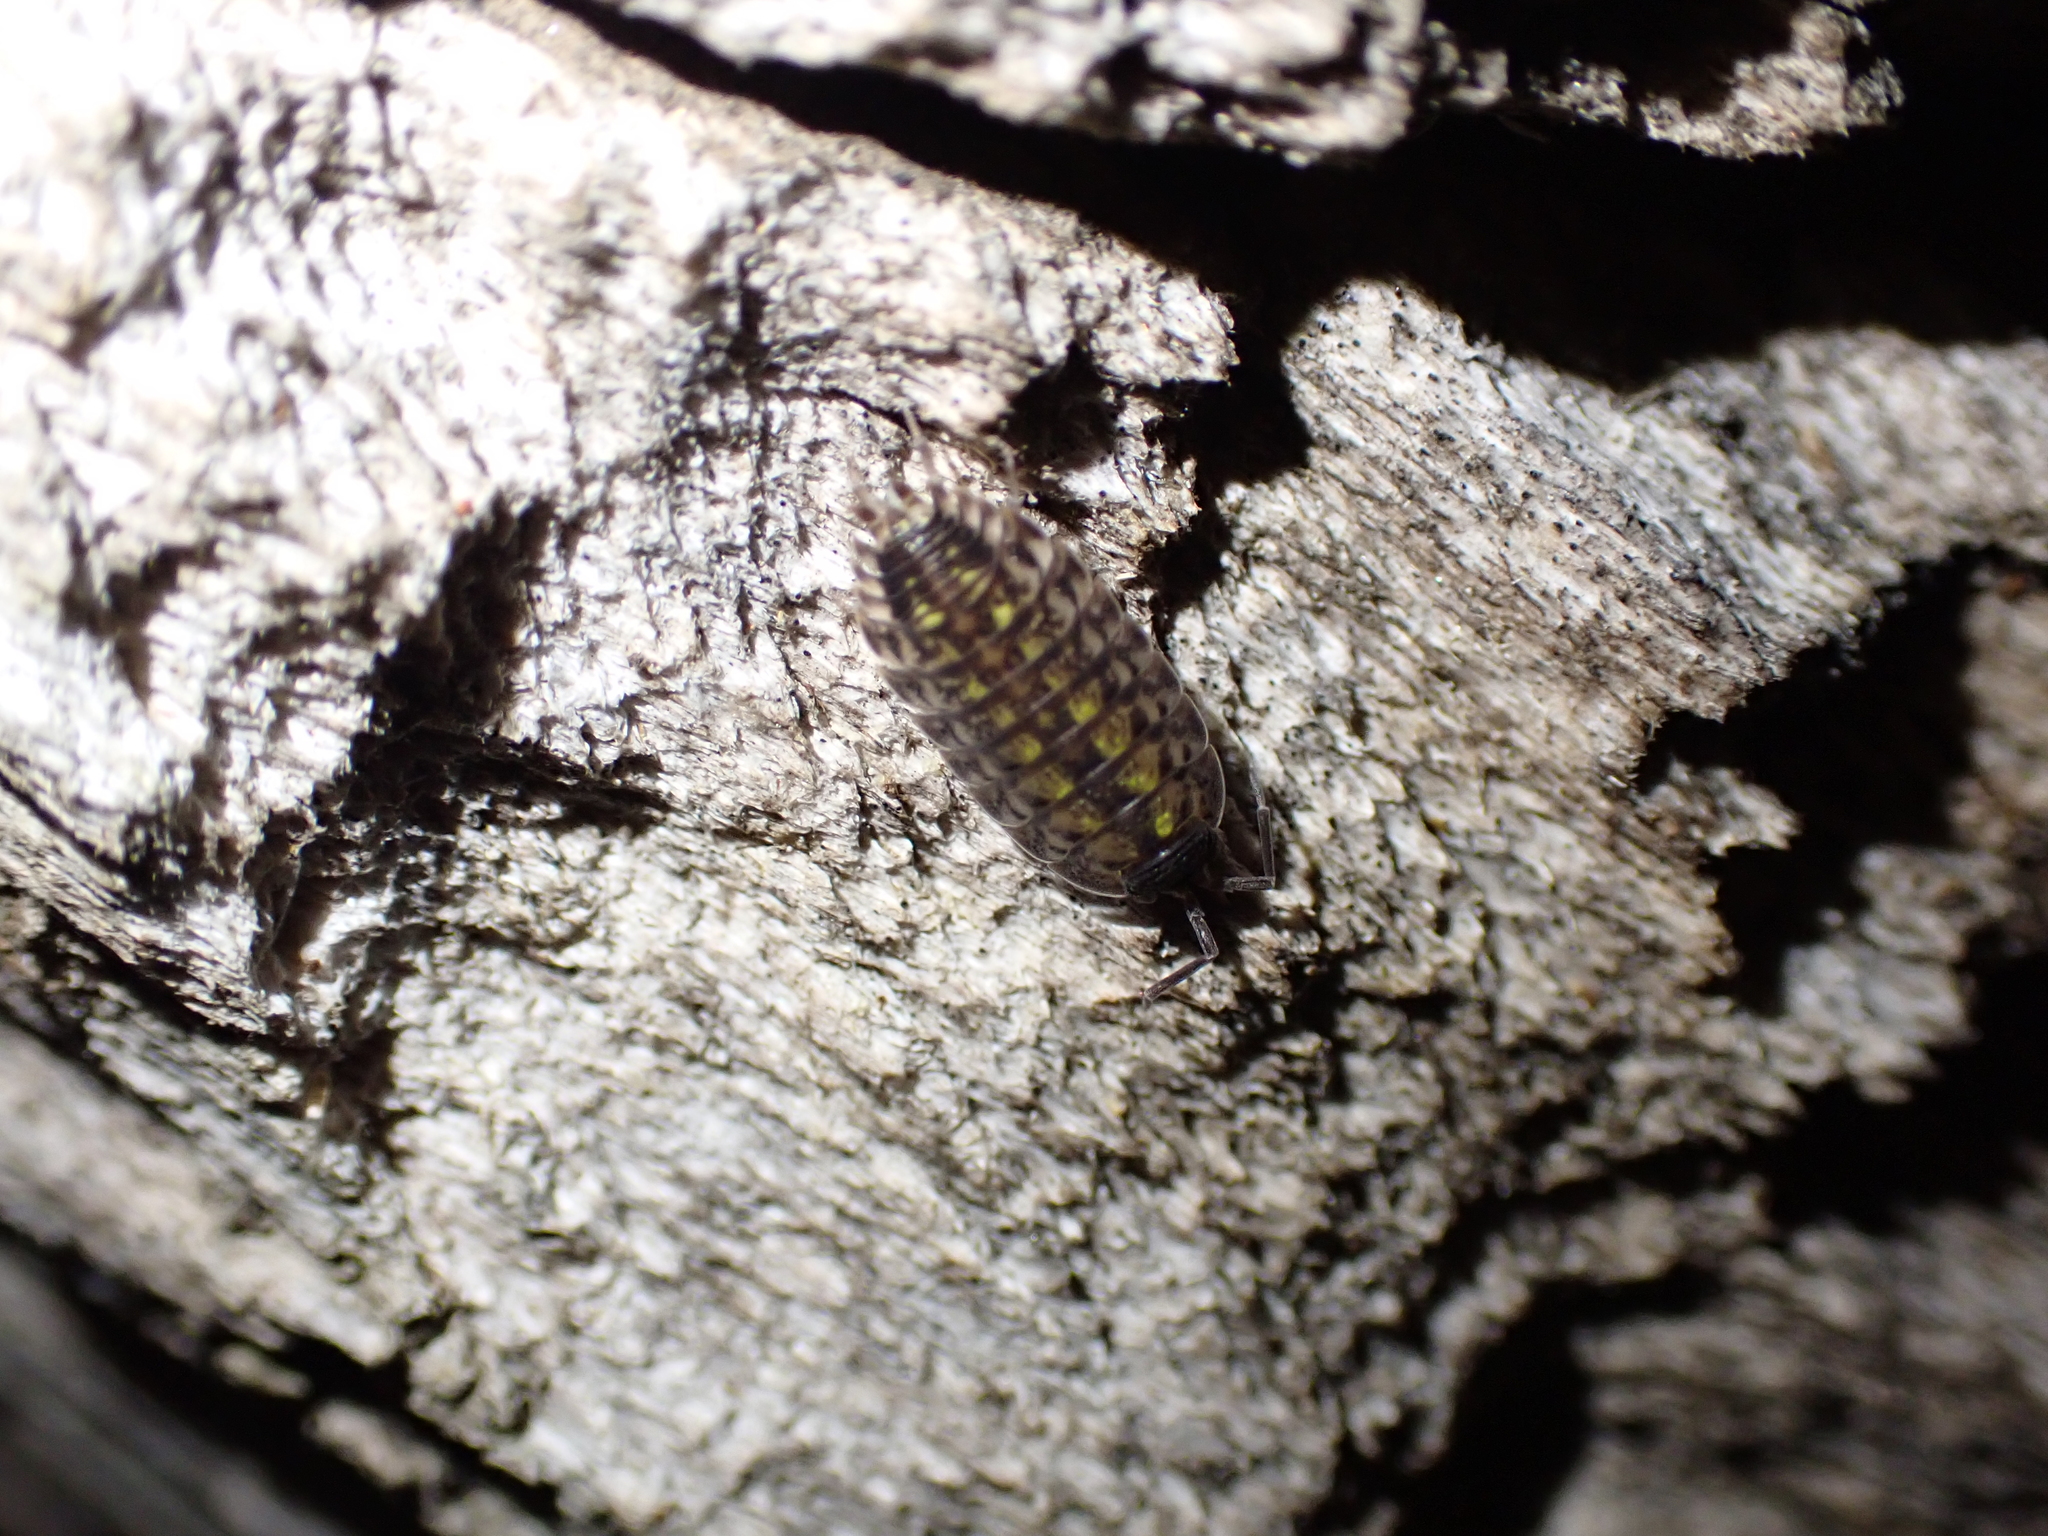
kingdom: Animalia
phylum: Arthropoda
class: Malacostraca
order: Isopoda
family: Porcellionidae
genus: Porcellio
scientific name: Porcellio spinicornis
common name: Painted woodlouse
